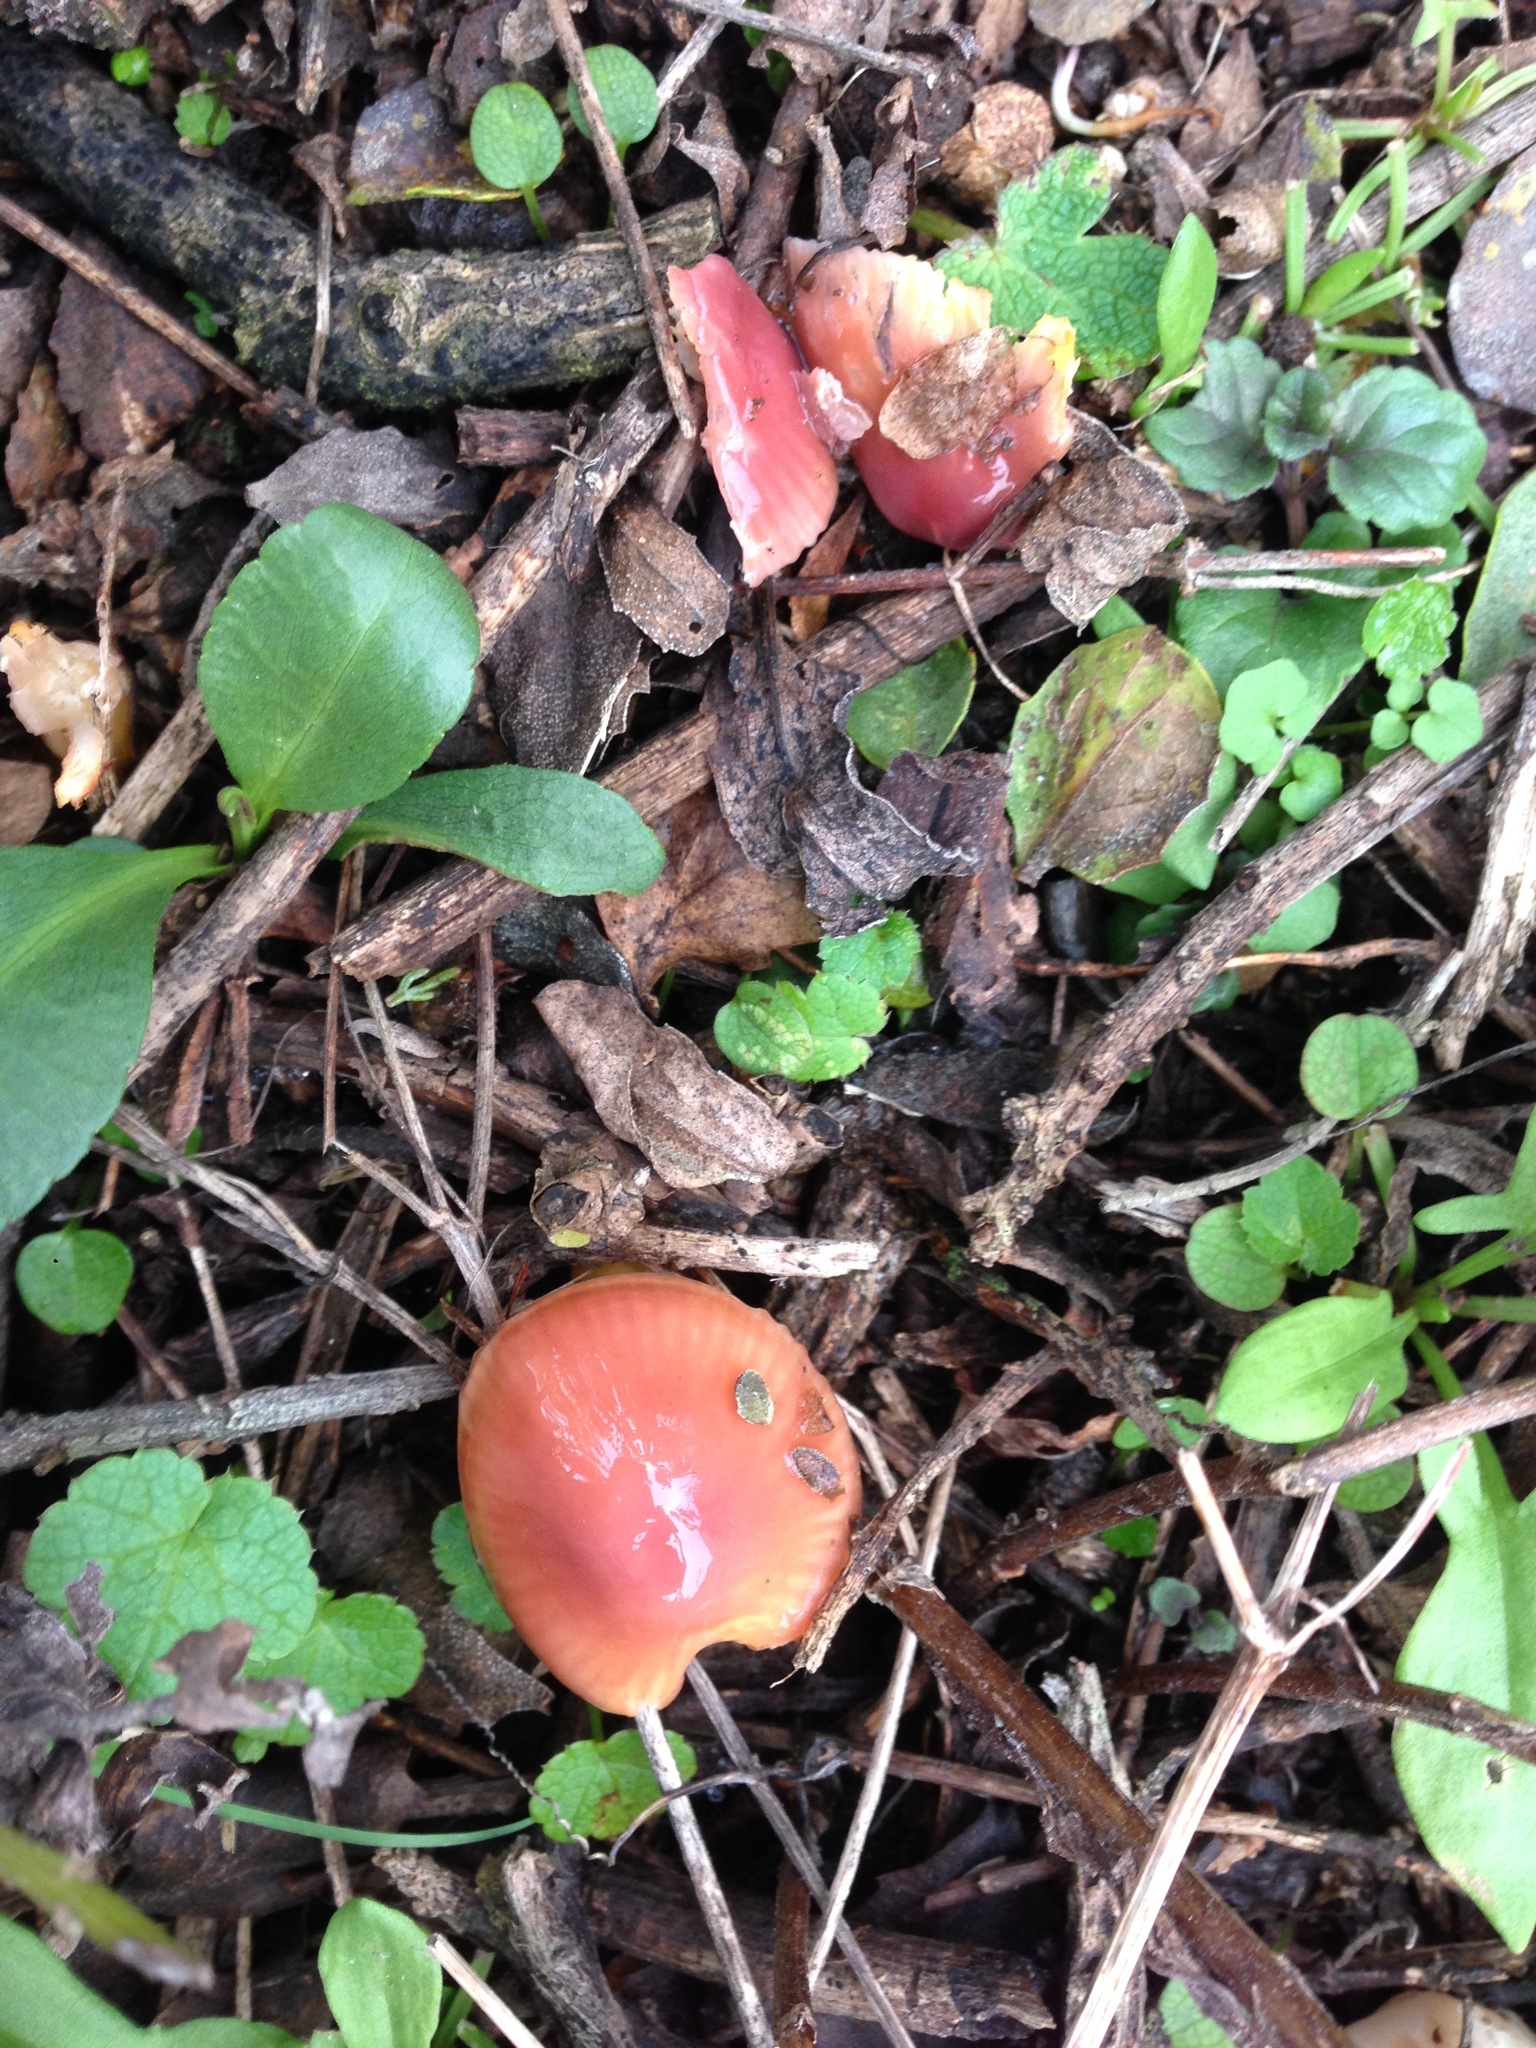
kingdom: Fungi
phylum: Basidiomycota
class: Agaricomycetes
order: Agaricales
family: Hygrophoraceae
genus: Gliophorus
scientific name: Gliophorus psittacinus
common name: Parrot wax-cap
